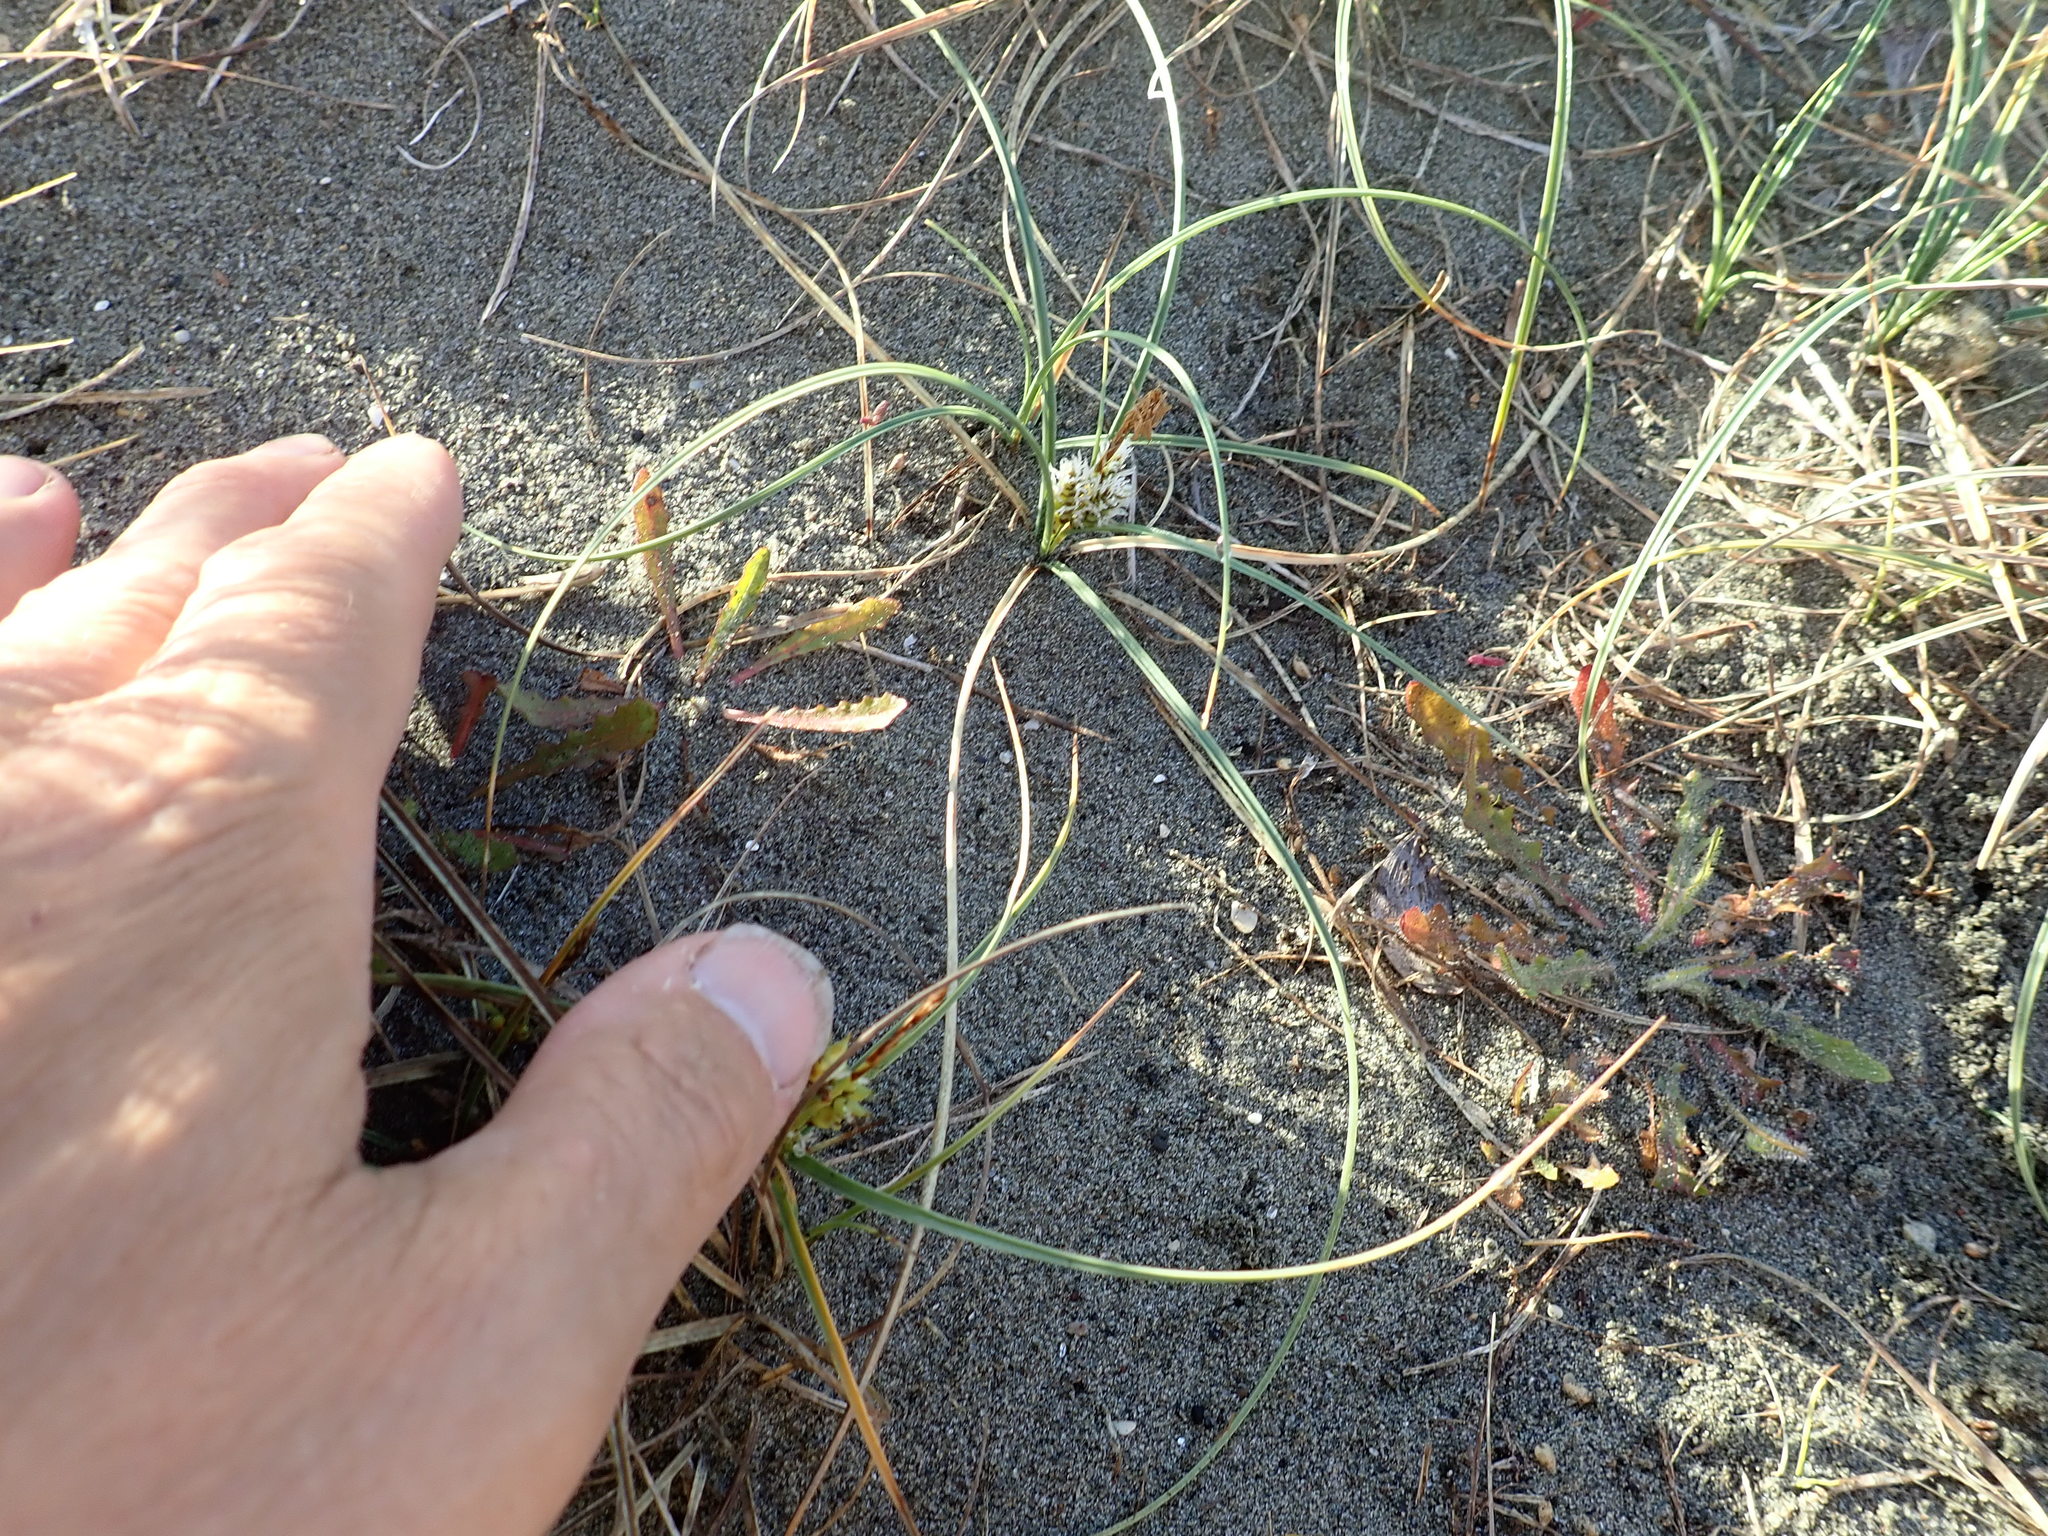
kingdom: Plantae
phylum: Tracheophyta
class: Liliopsida
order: Poales
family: Cyperaceae
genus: Carex
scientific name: Carex pumila
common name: Dwarf sedge
